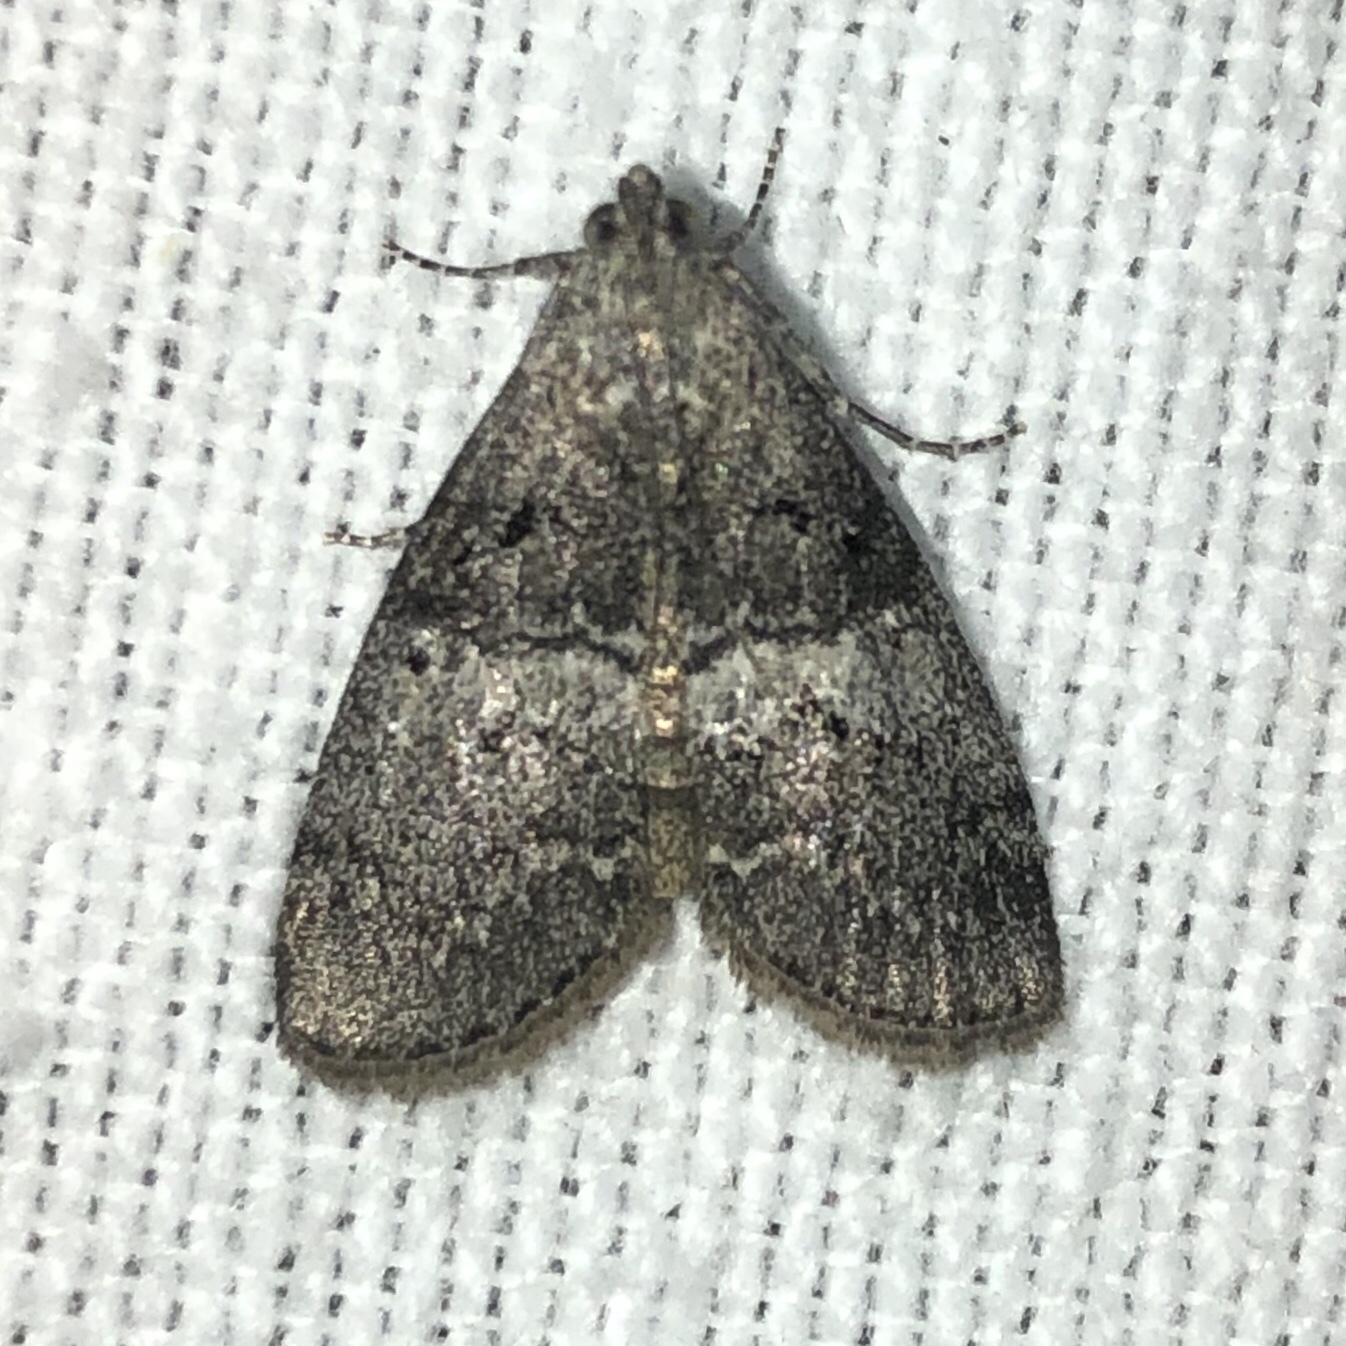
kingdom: Animalia
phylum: Arthropoda
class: Insecta
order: Lepidoptera
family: Pyralidae
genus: Pococera
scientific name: Pococera asperatella
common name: Maple webworm moth
